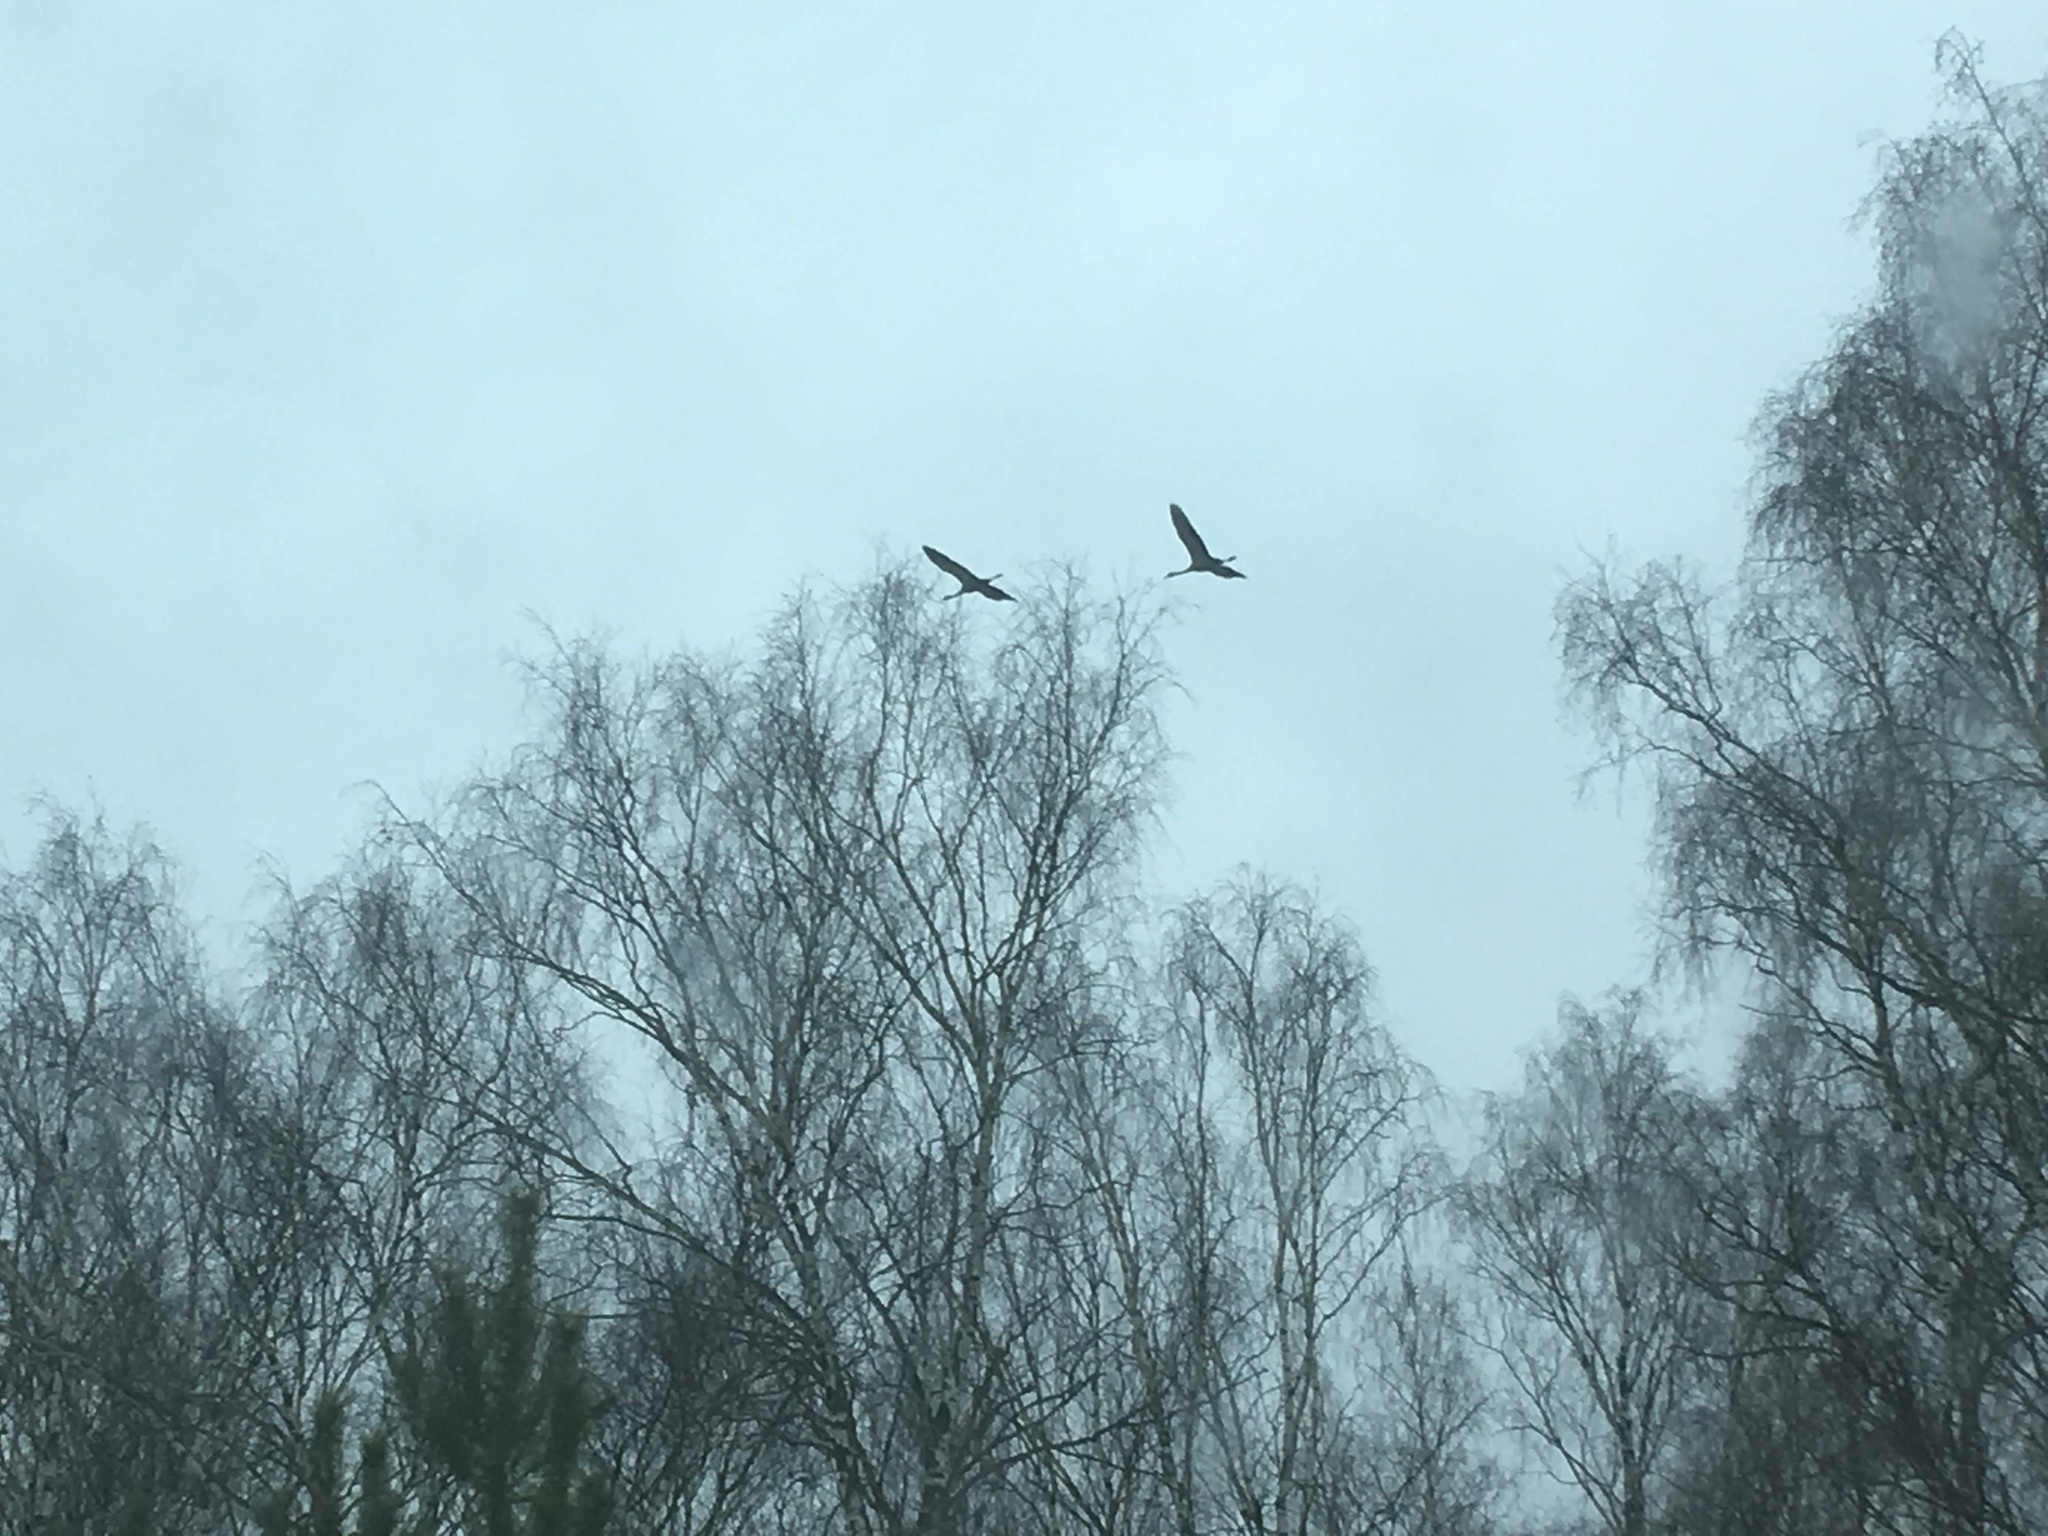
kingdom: Animalia
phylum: Chordata
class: Aves
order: Gruiformes
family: Gruidae
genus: Grus
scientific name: Grus grus
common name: Common crane
